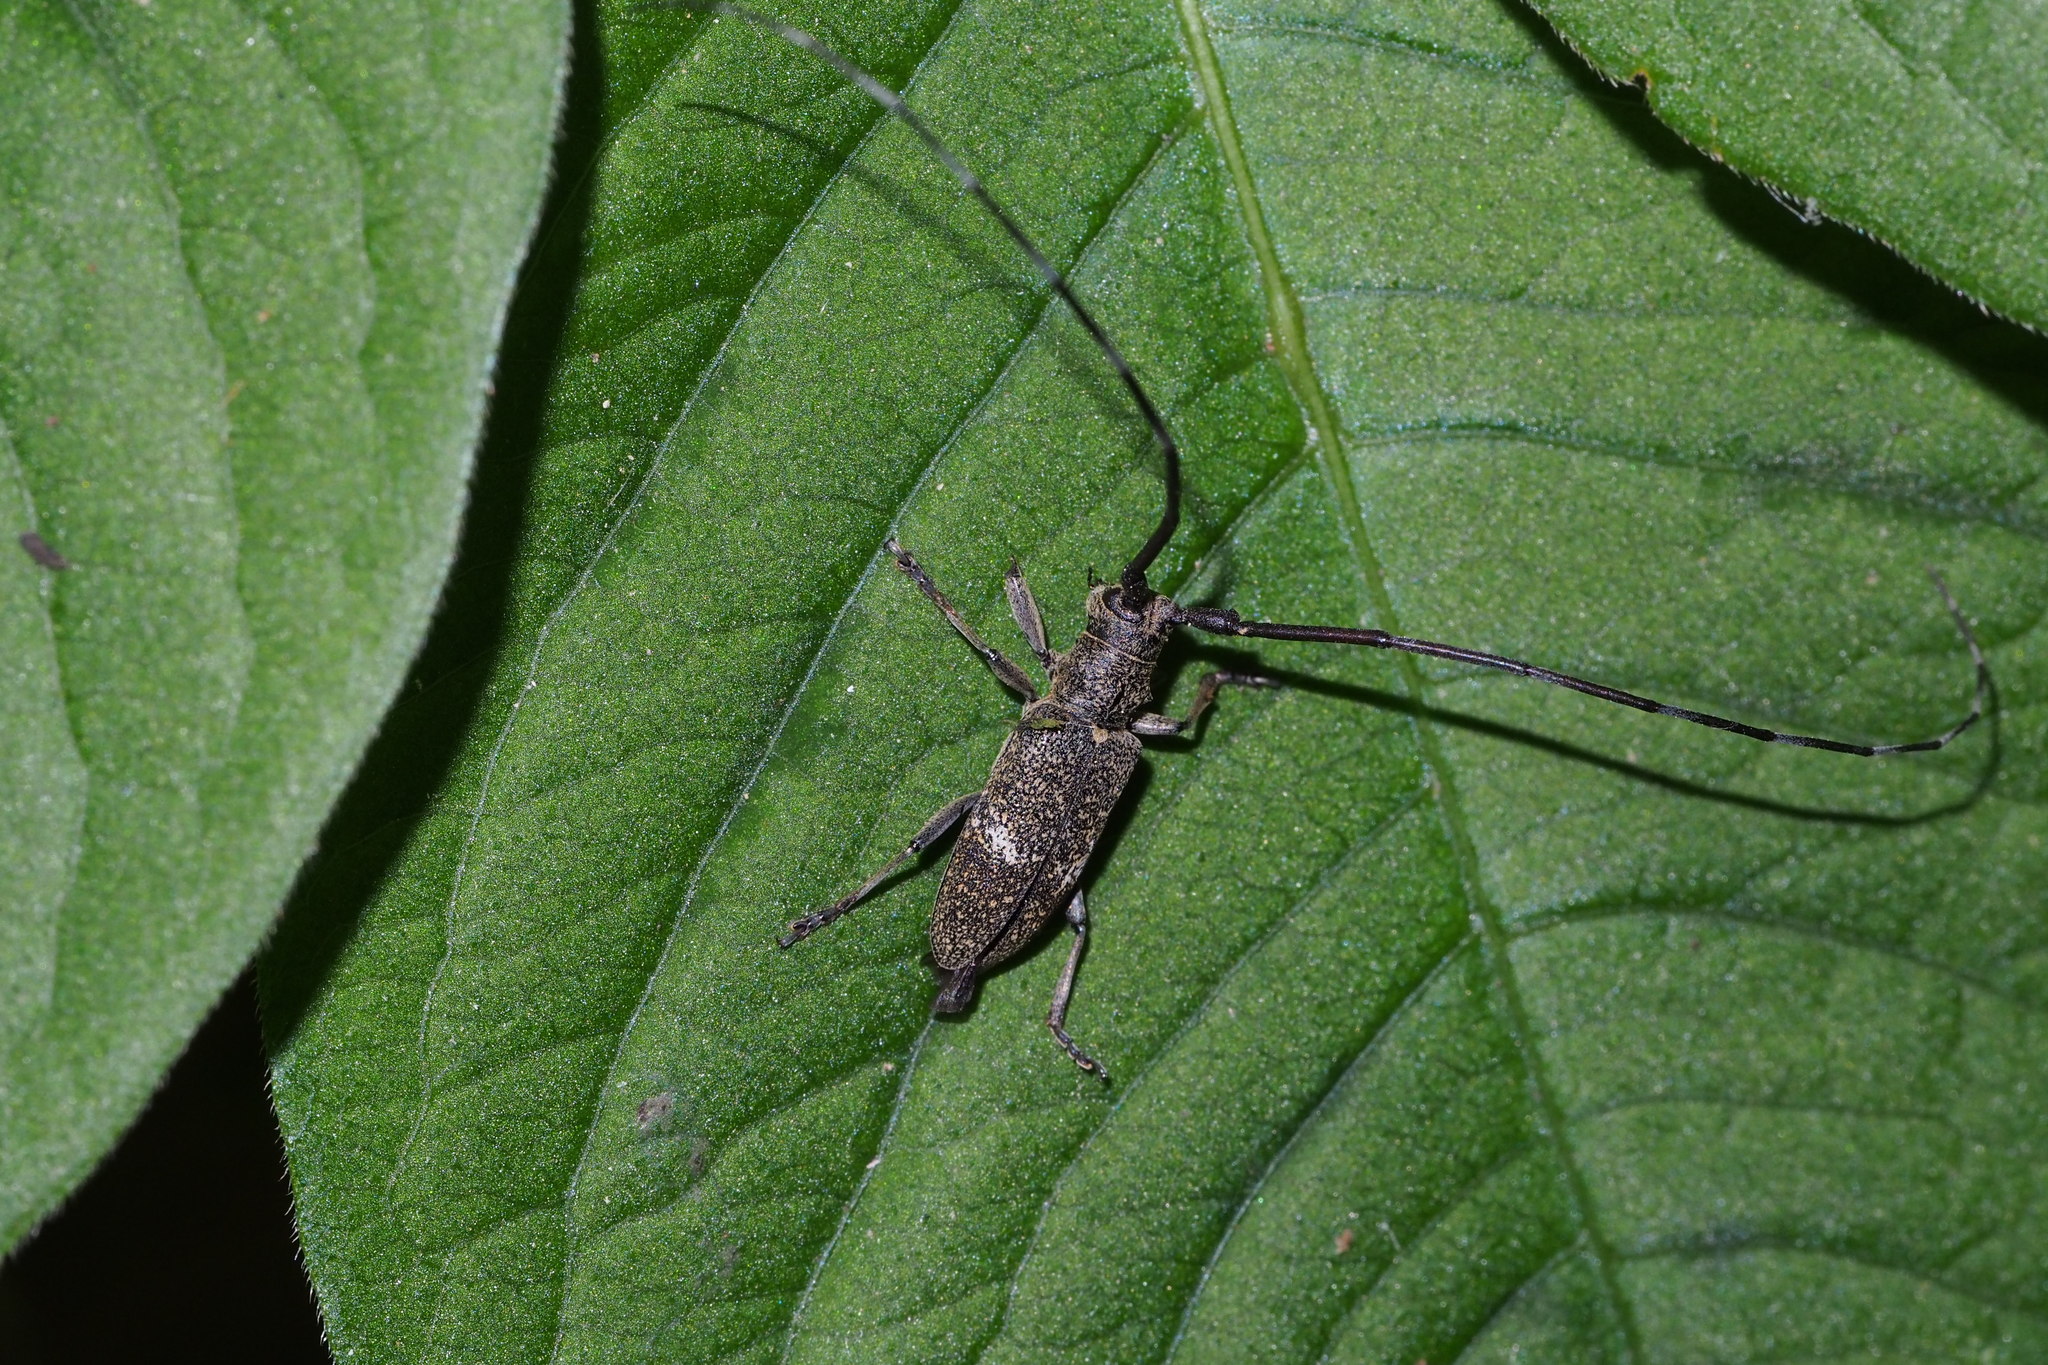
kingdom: Animalia
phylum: Arthropoda
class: Insecta
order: Coleoptera
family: Cerambycidae
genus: Monochamus
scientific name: Monochamus subfasciatus
